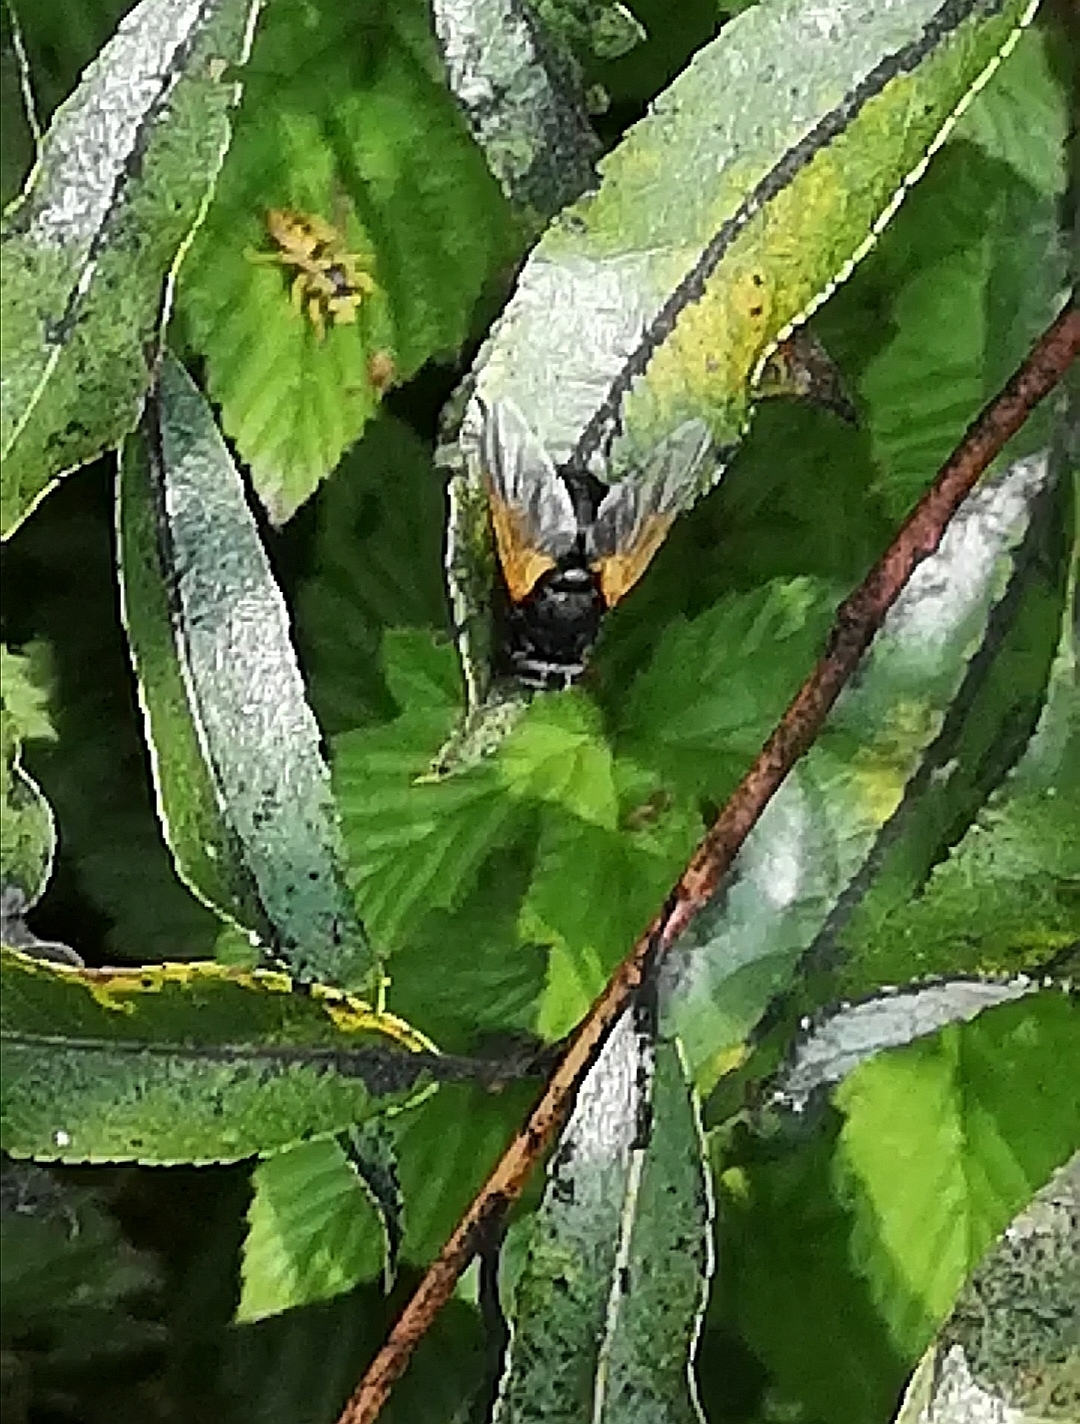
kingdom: Animalia
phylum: Arthropoda
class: Insecta
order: Diptera
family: Muscidae
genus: Mesembrina
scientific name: Mesembrina meridiana
